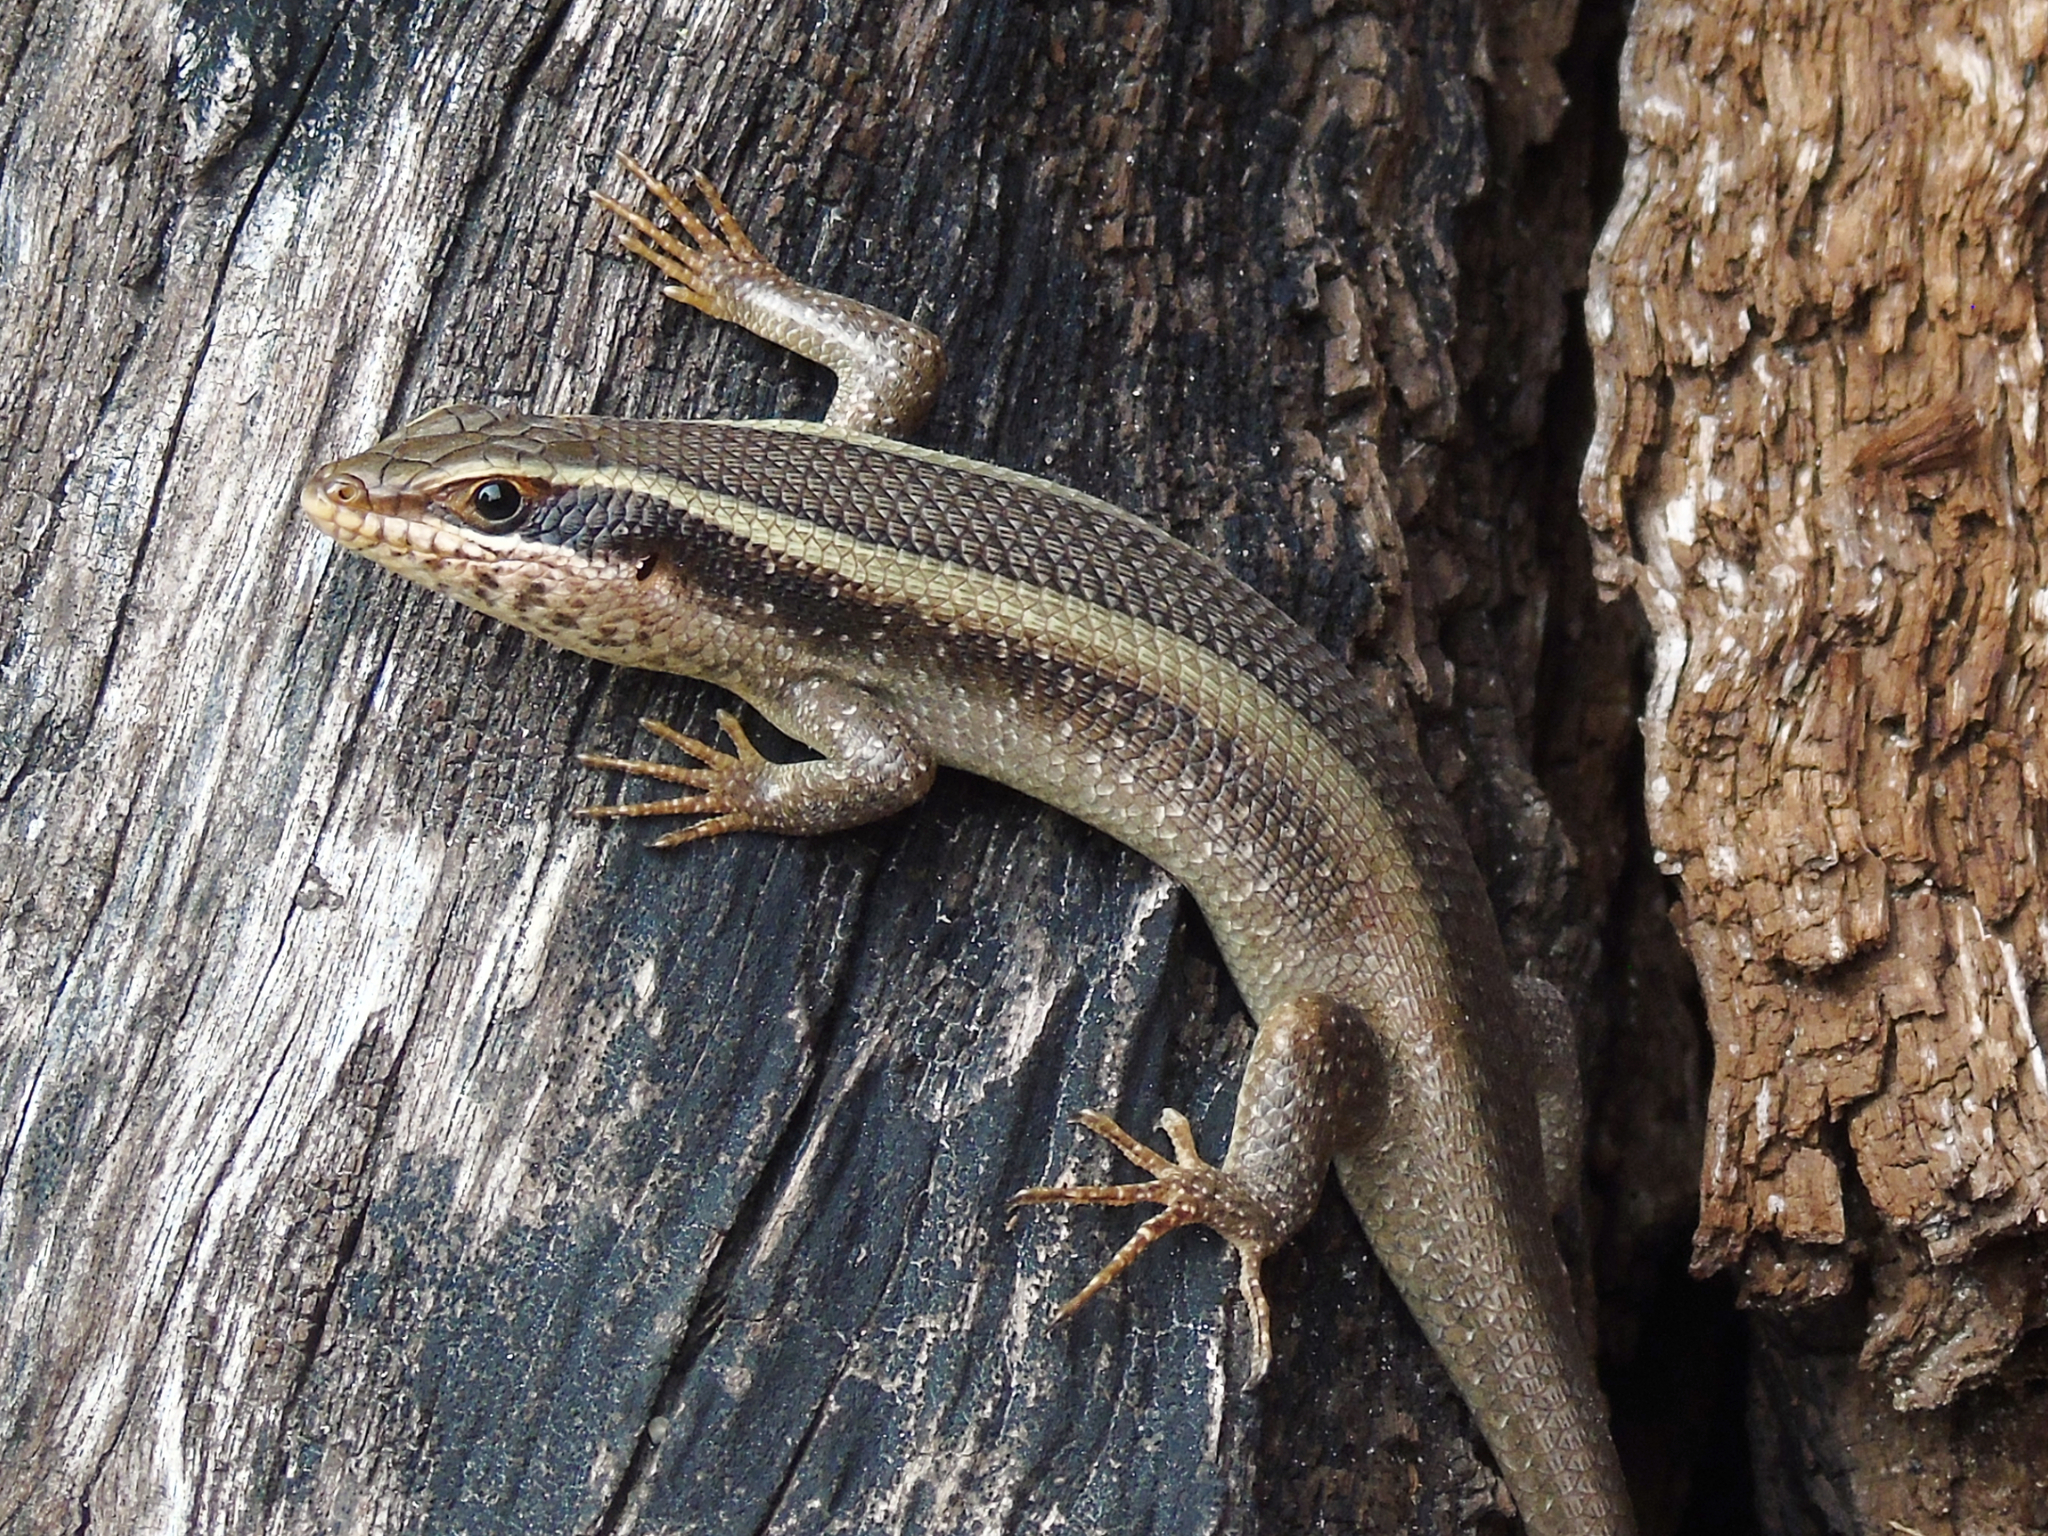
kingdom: Animalia
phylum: Chordata
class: Squamata
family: Scincidae
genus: Trachylepis
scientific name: Trachylepis striata
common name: African striped mabuya
